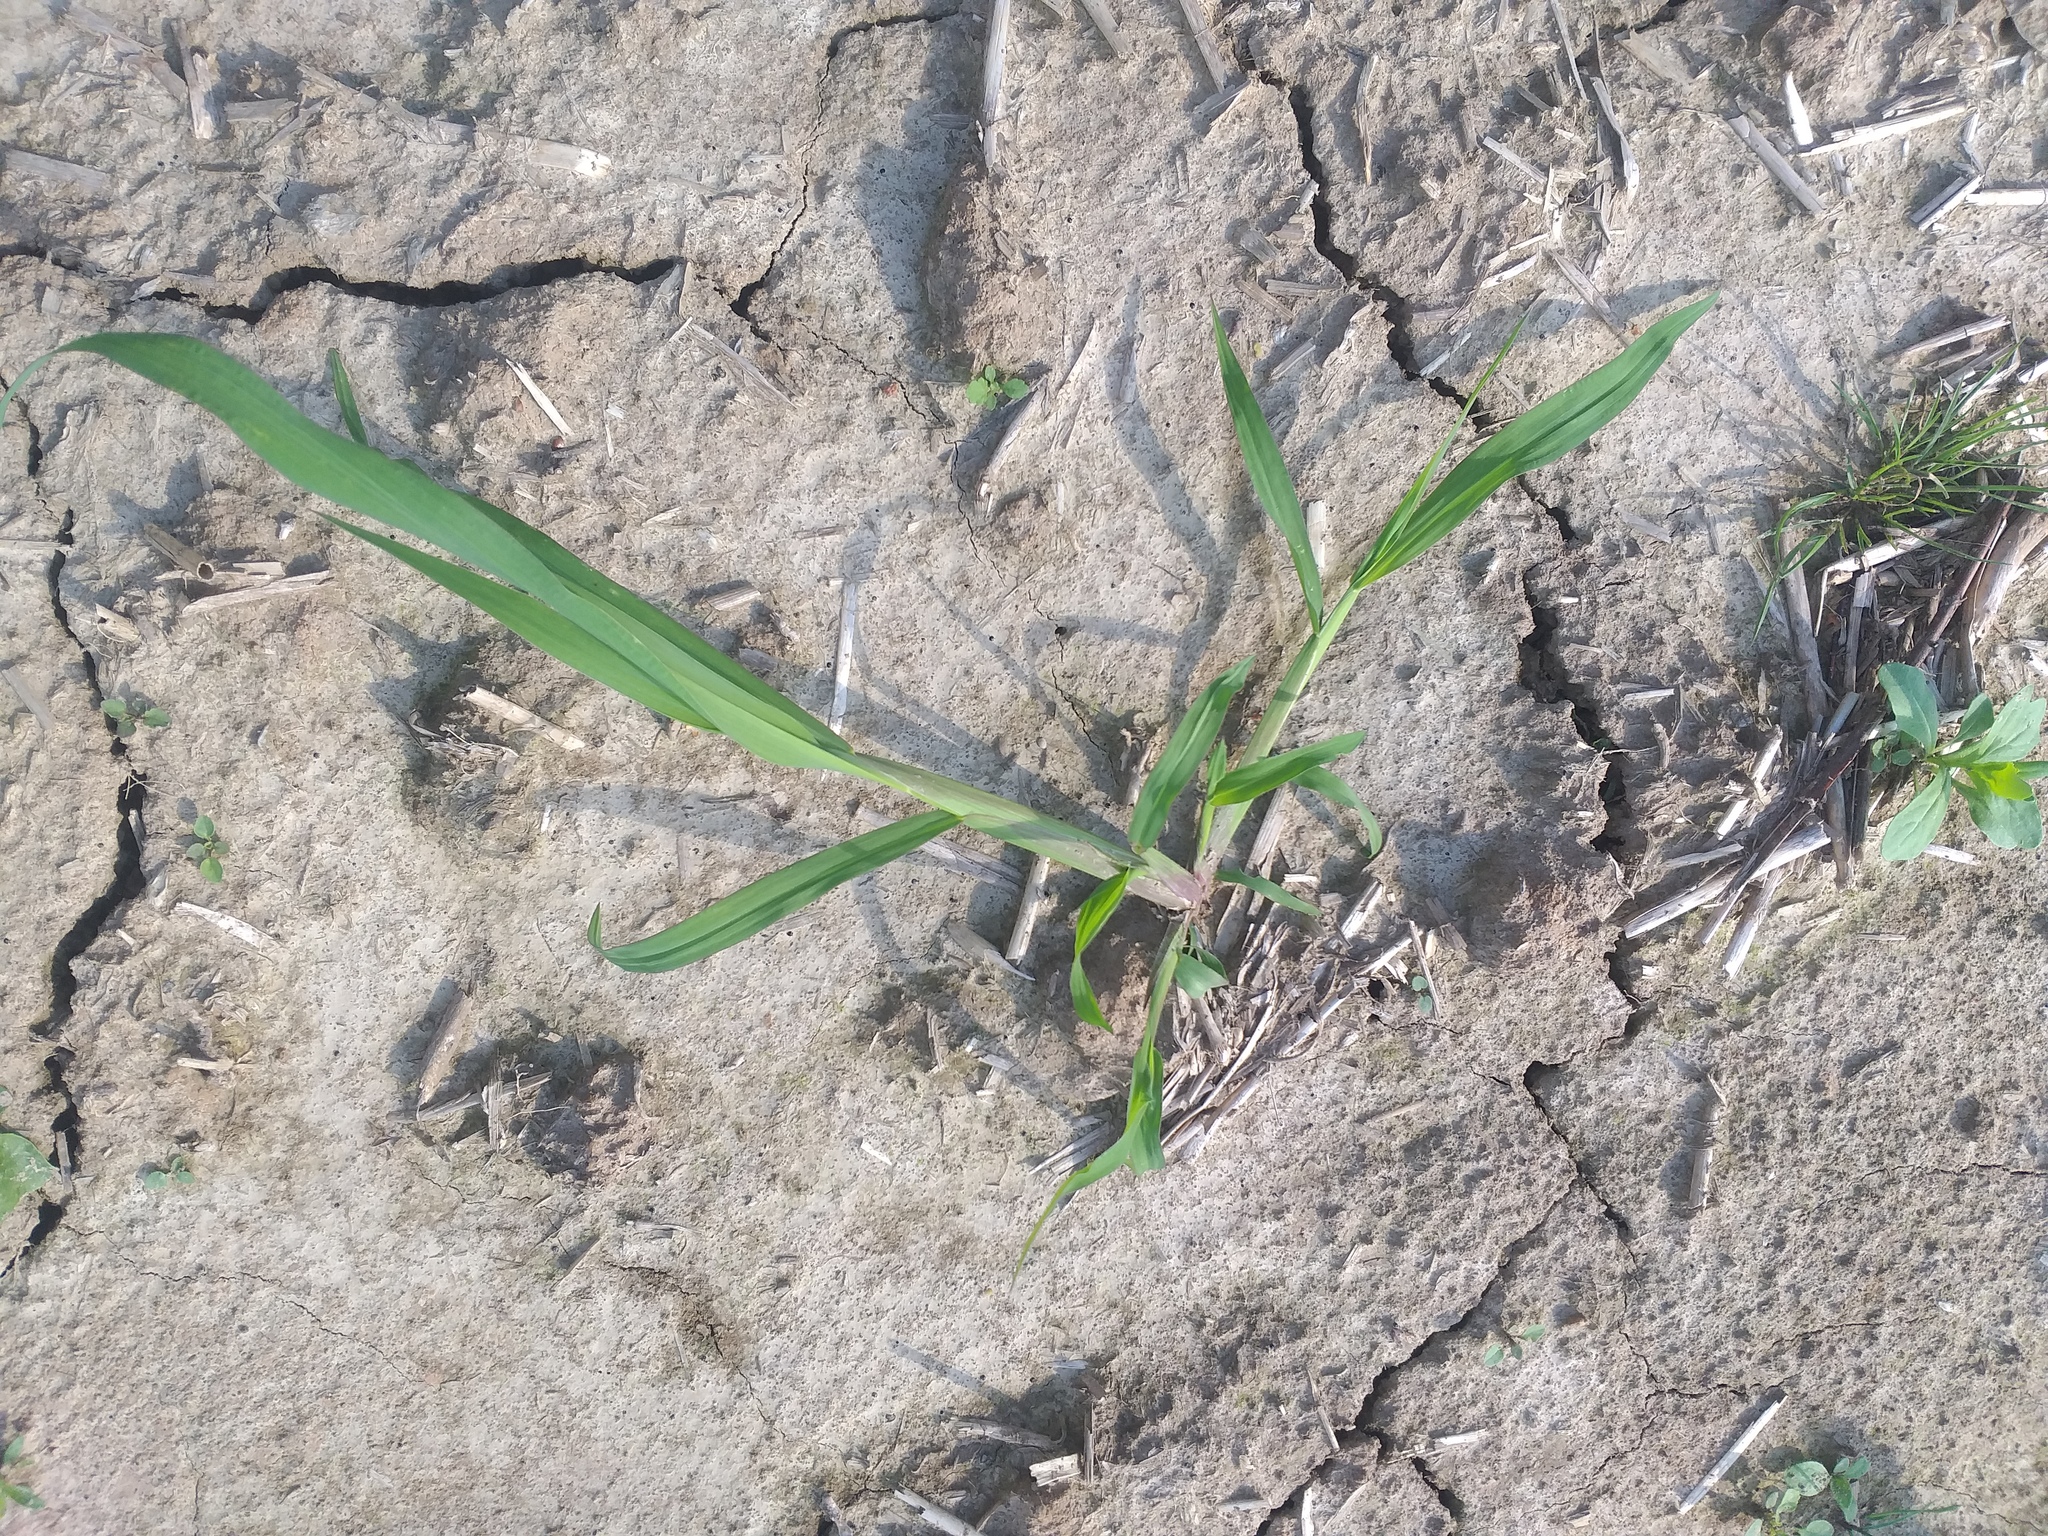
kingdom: Plantae
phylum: Tracheophyta
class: Liliopsida
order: Poales
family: Poaceae
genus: Echinochloa
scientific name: Echinochloa crus-galli
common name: Cockspur
